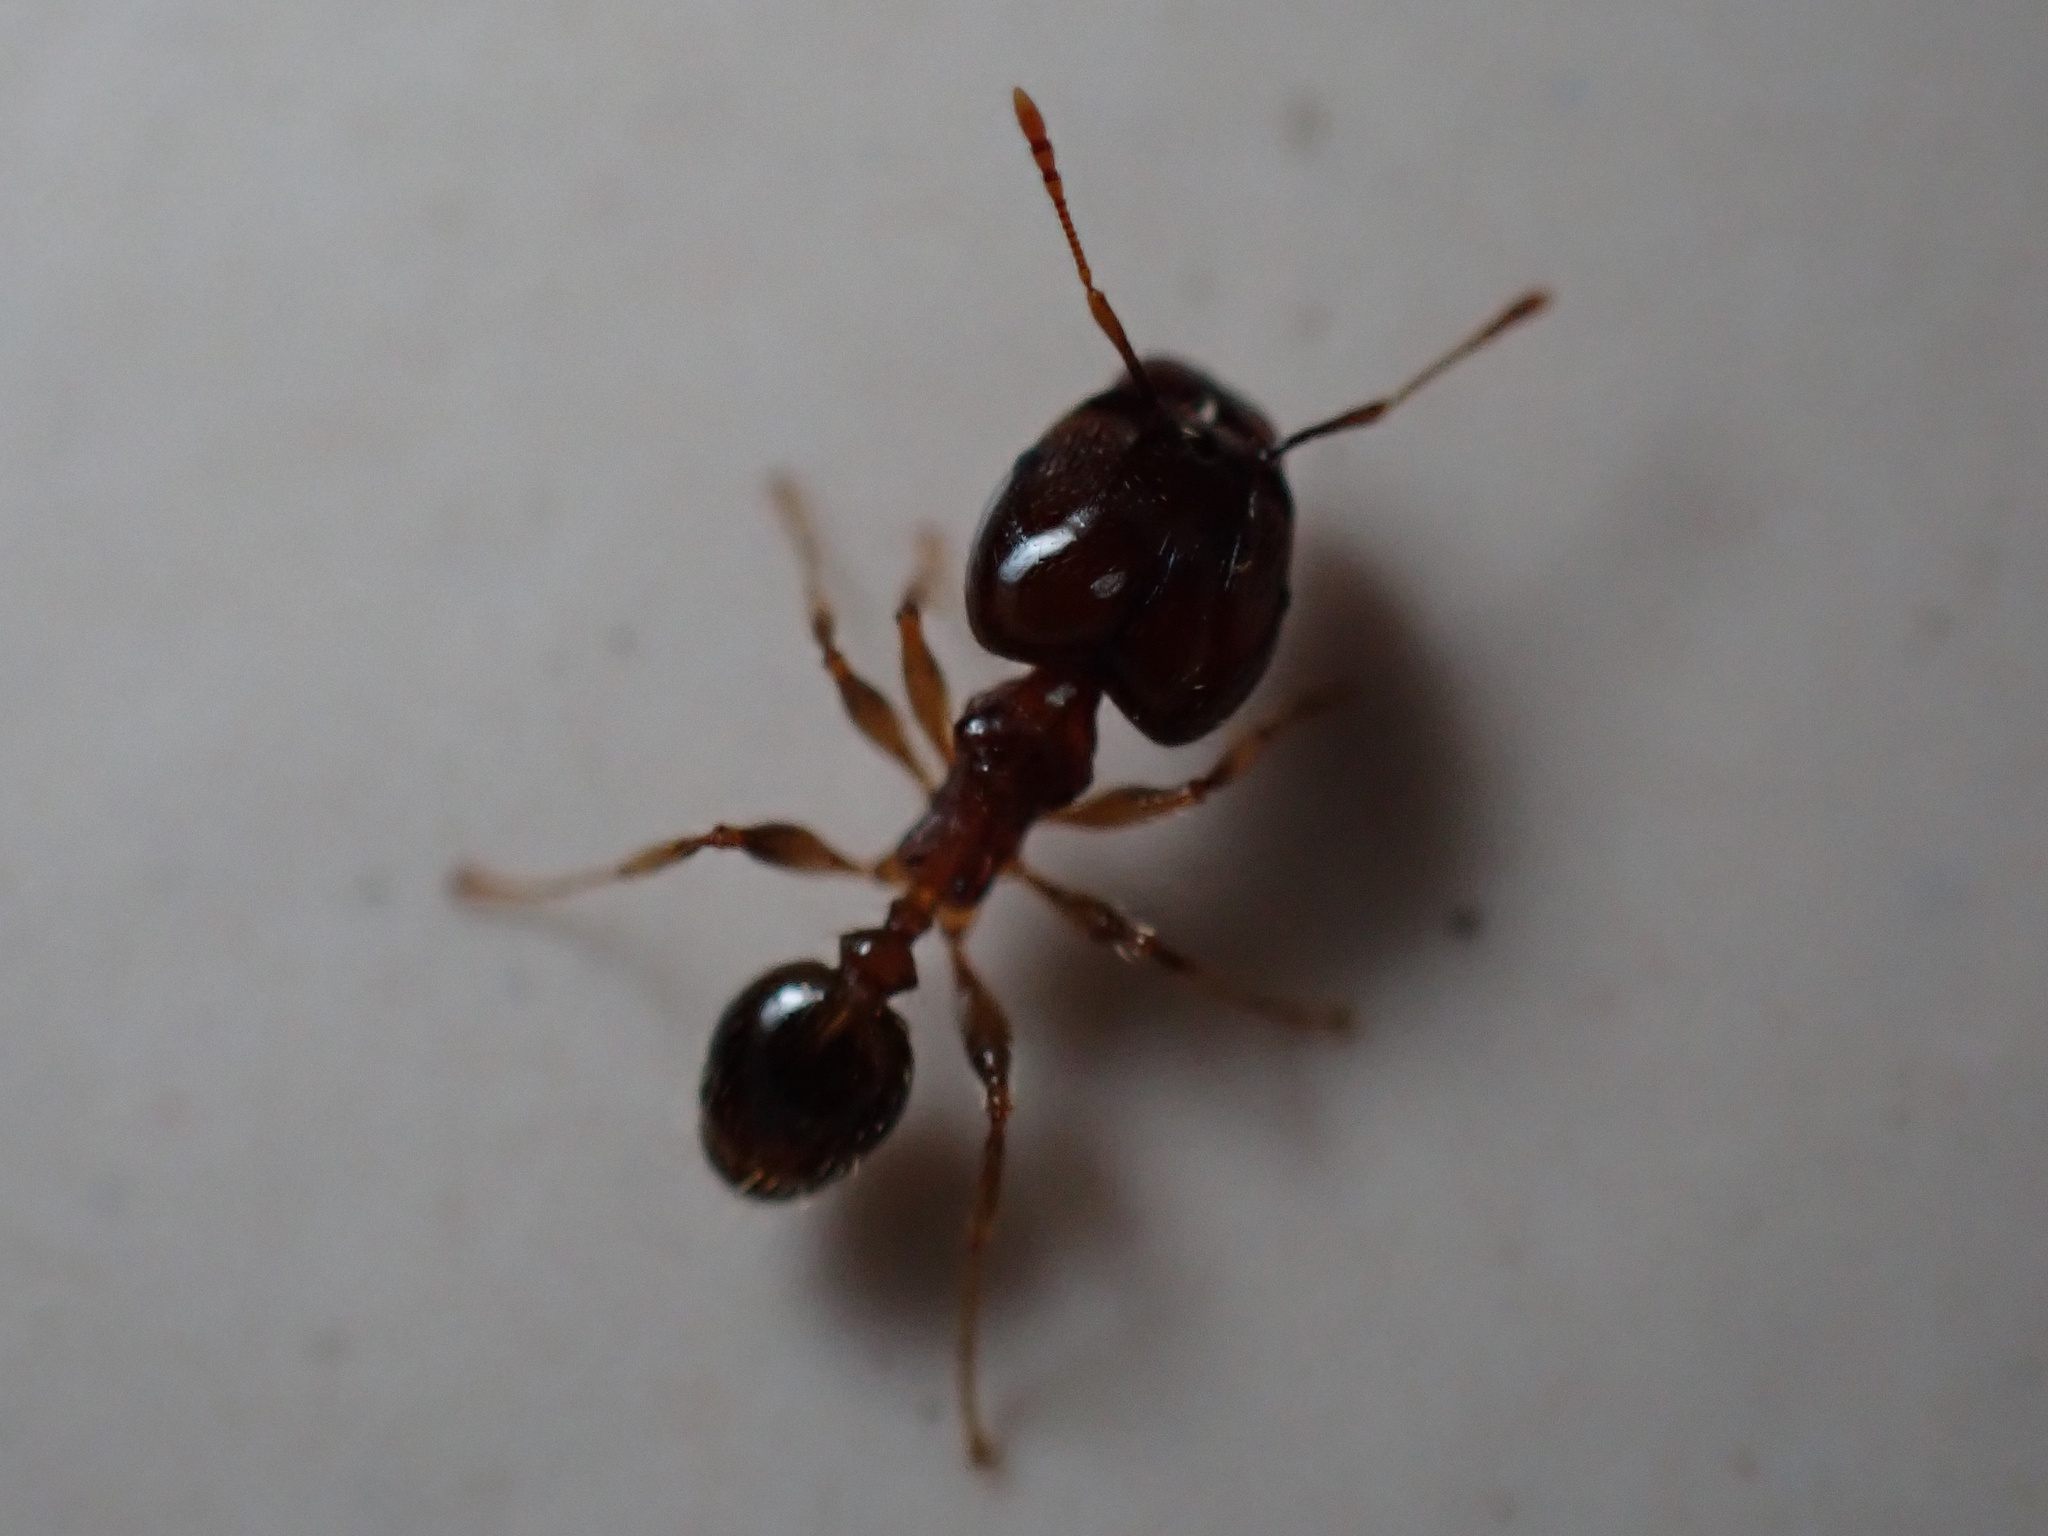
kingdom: Animalia
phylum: Arthropoda
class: Insecta
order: Hymenoptera
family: Formicidae
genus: Pheidole
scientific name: Pheidole megacephala
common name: Bigheaded ant
